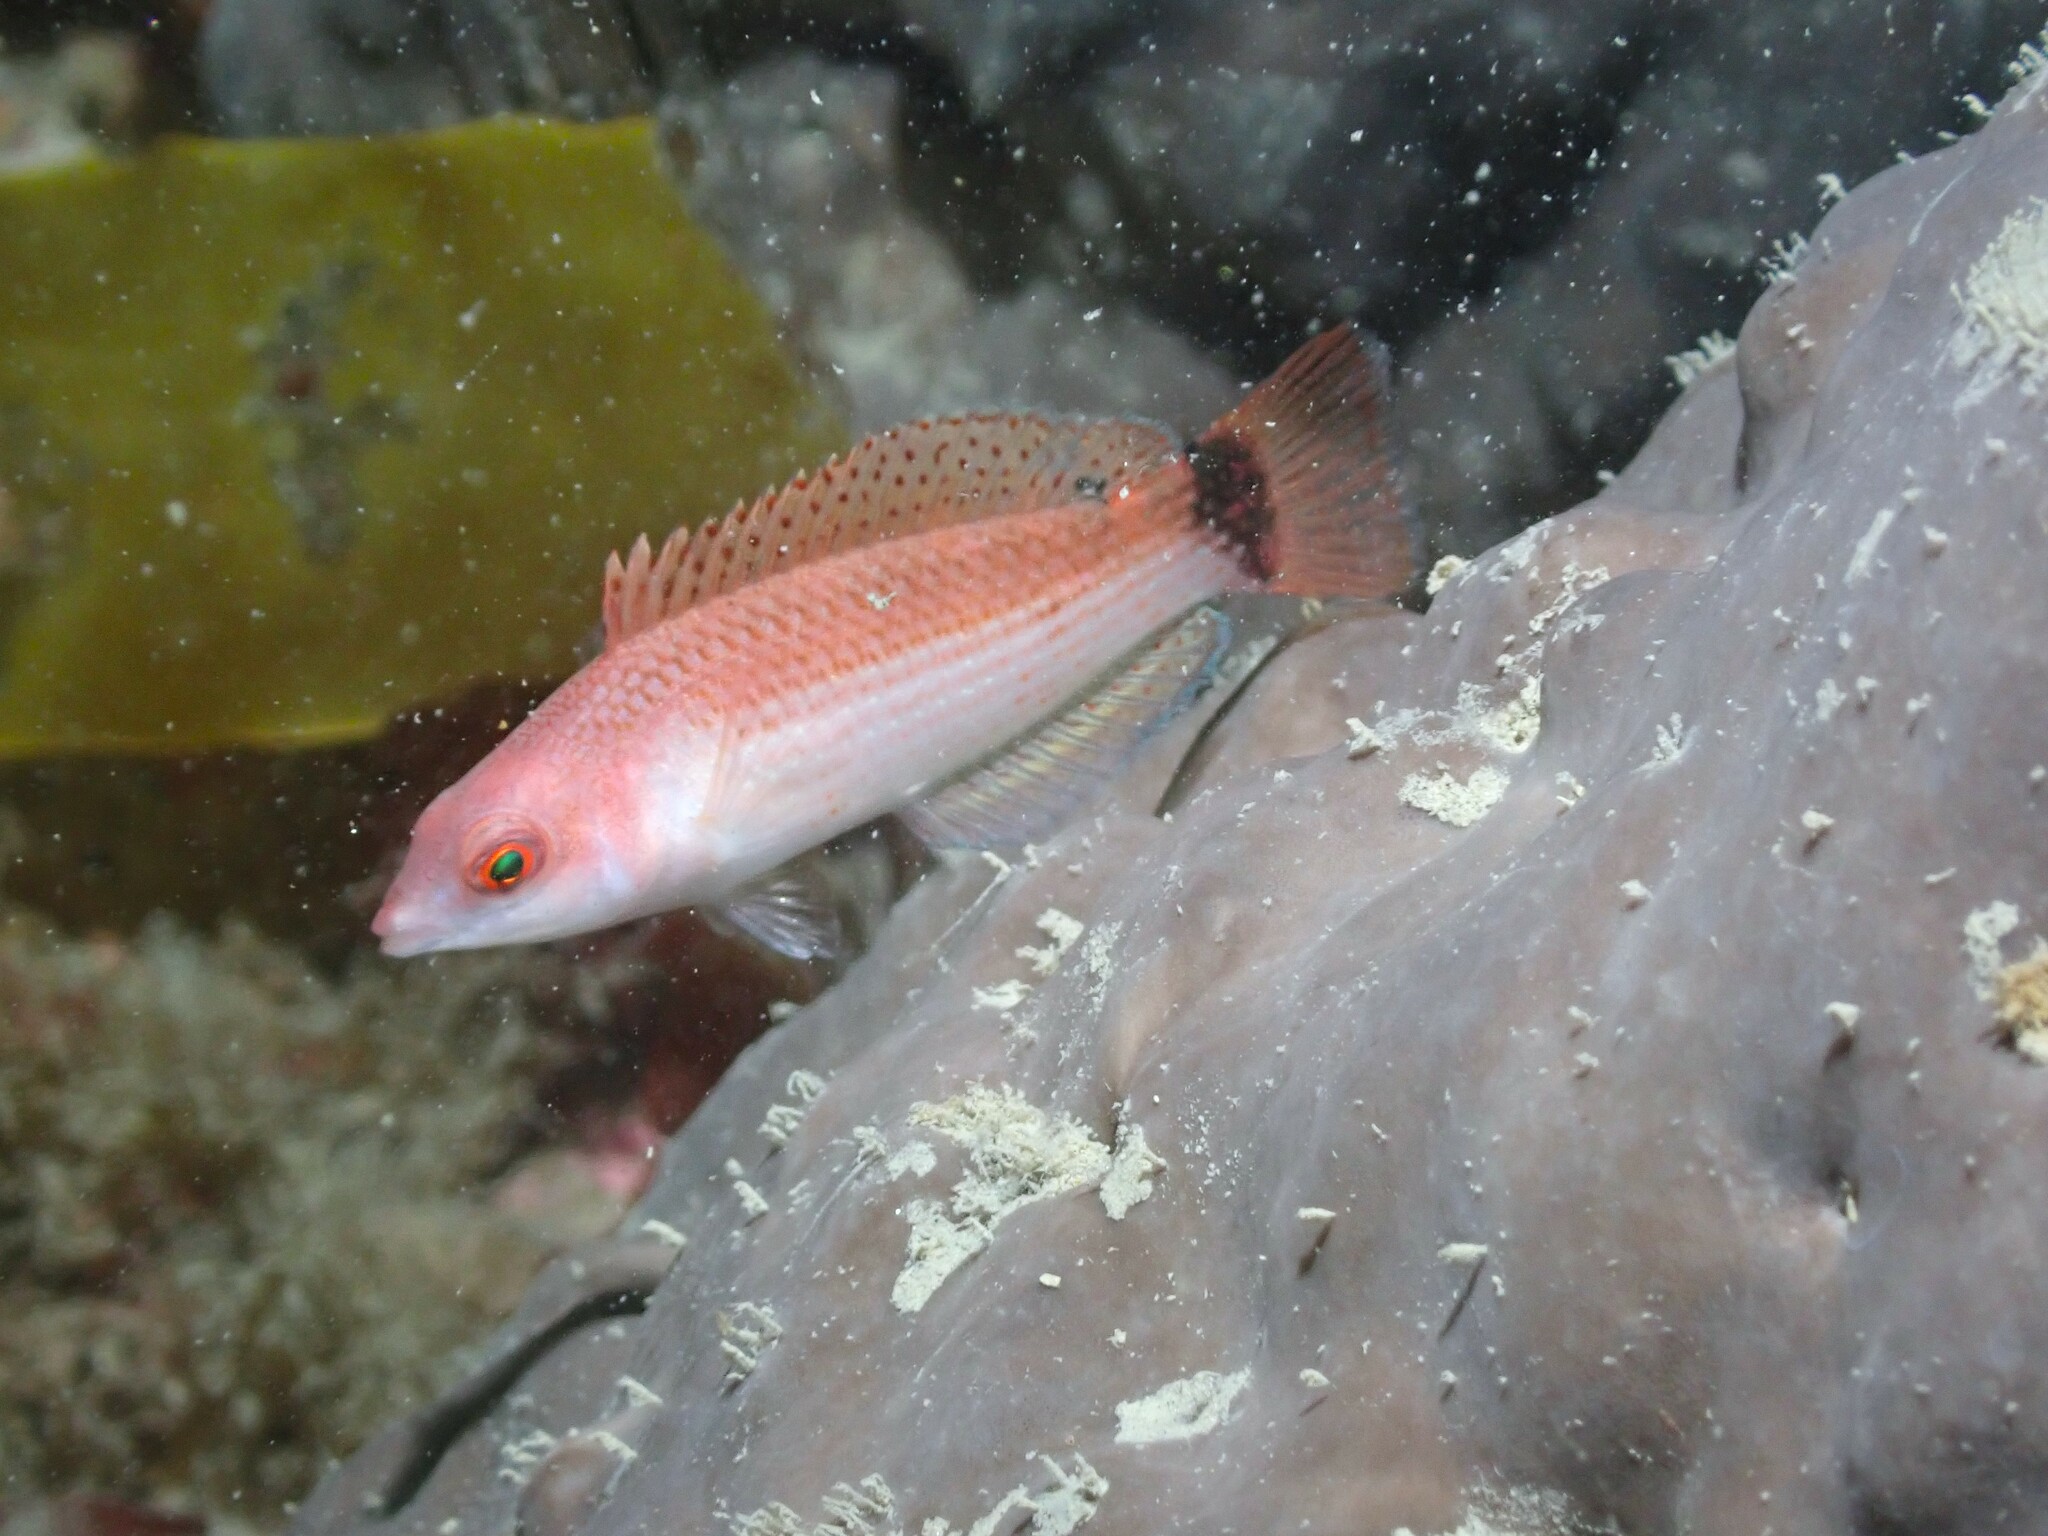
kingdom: Animalia
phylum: Chordata
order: Perciformes
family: Labridae
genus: Pseudolabrus
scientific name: Pseudolabrus miles
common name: Scarlet wrasse
